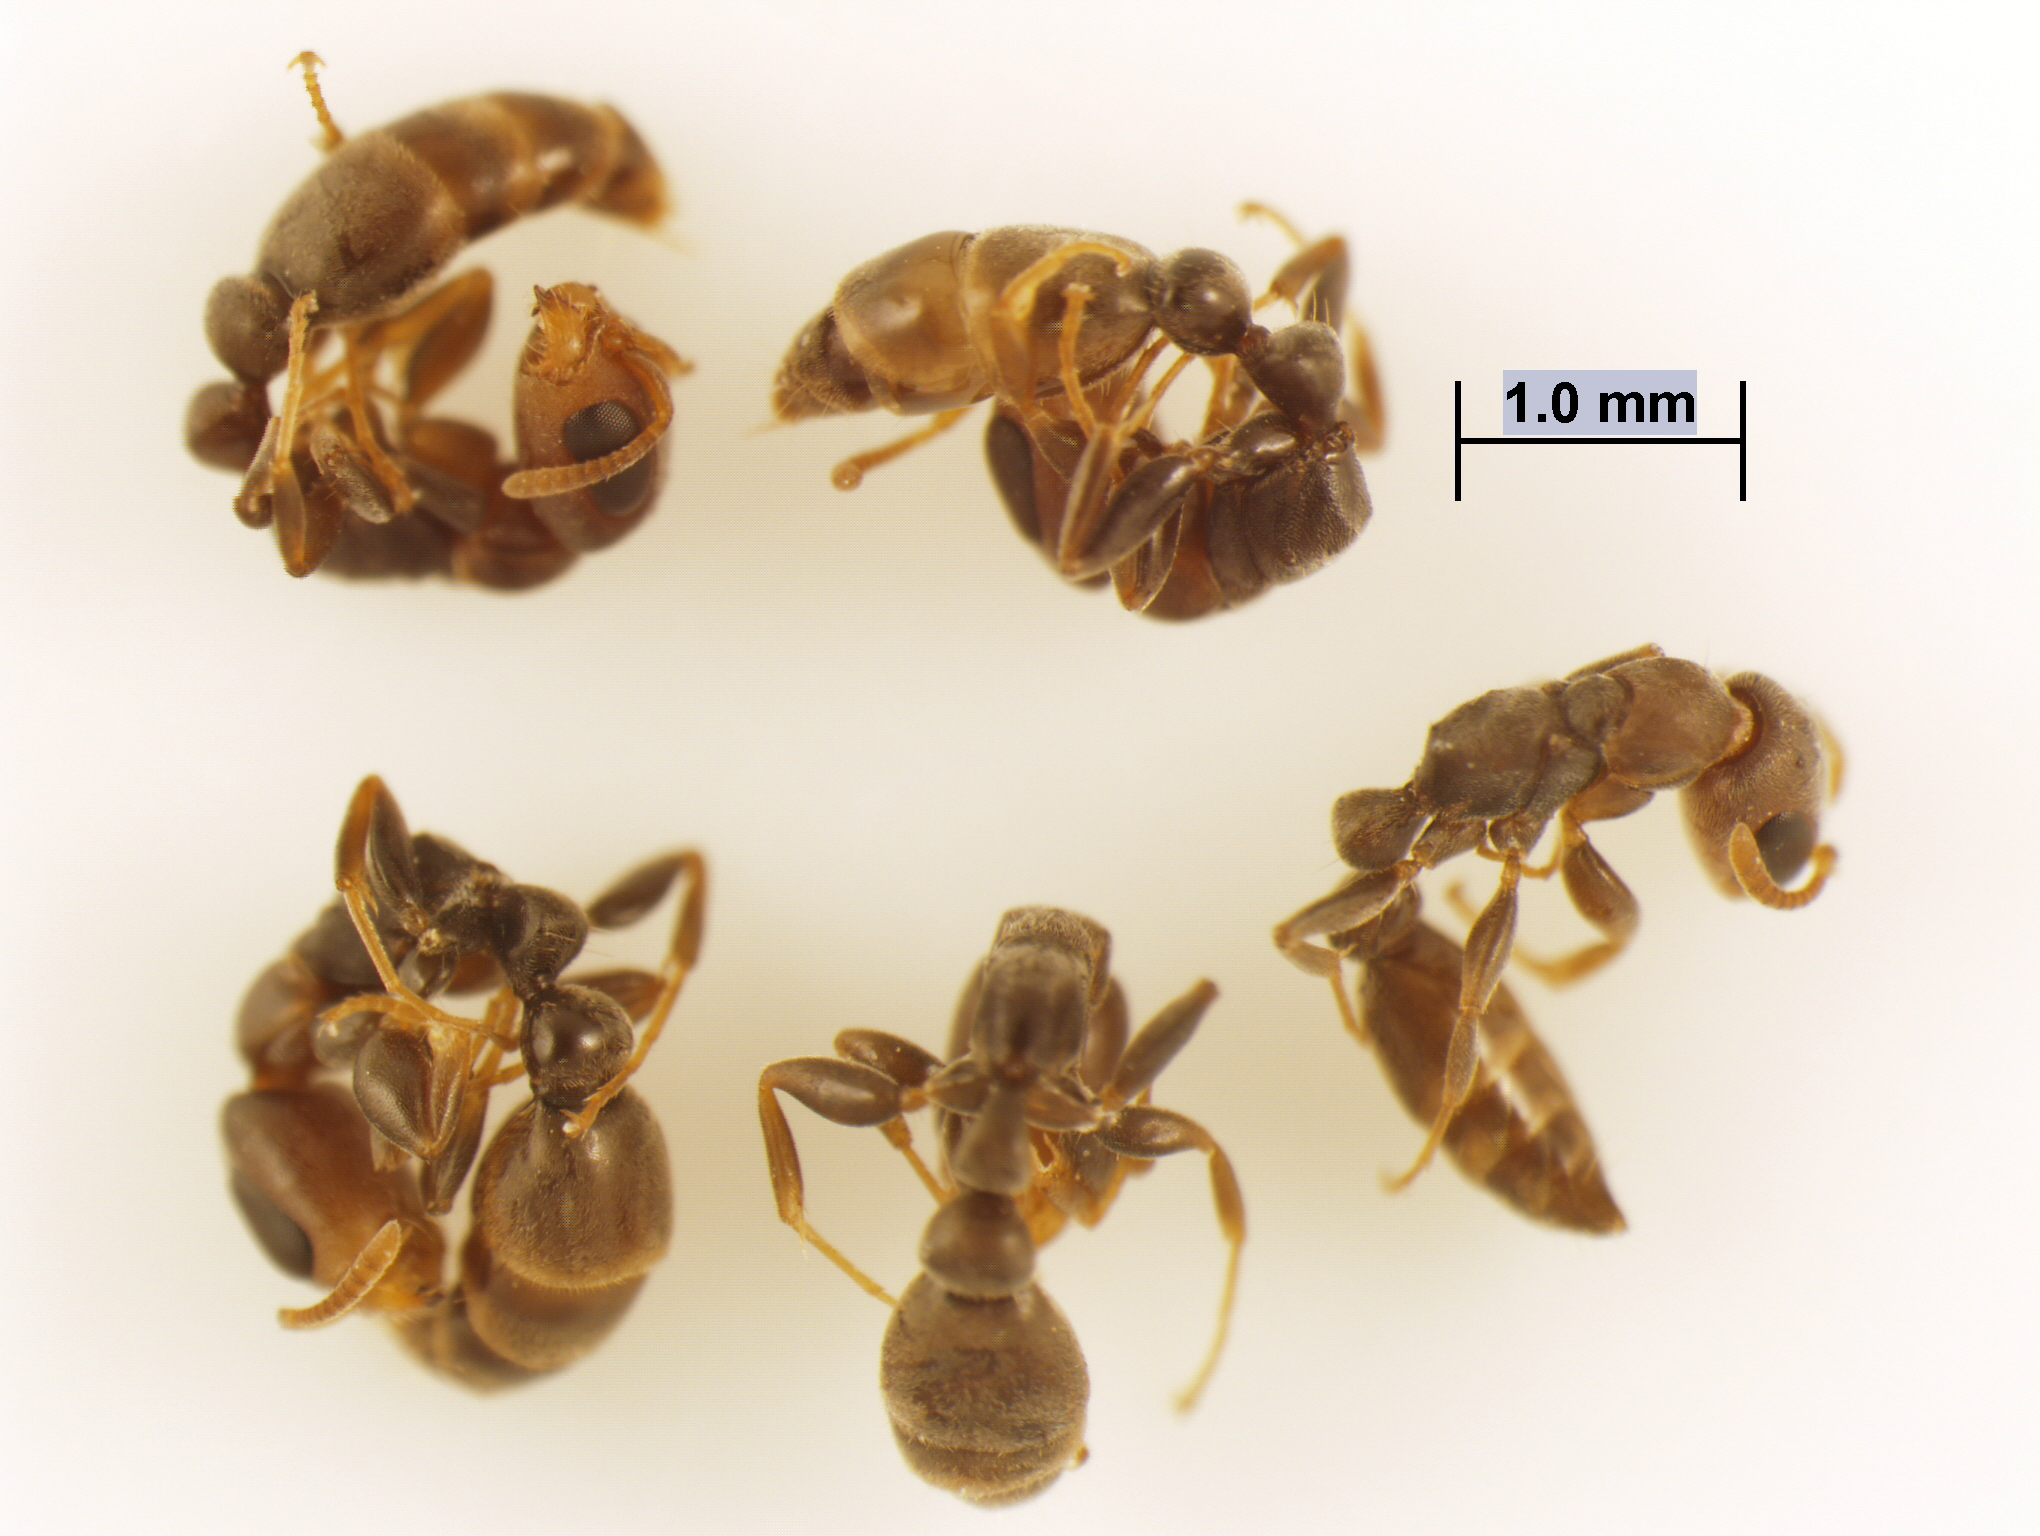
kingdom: Animalia
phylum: Arthropoda
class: Insecta
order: Hymenoptera
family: Formicidae
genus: Pseudomyrmex
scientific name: Pseudomyrmex elongatus
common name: Ant
